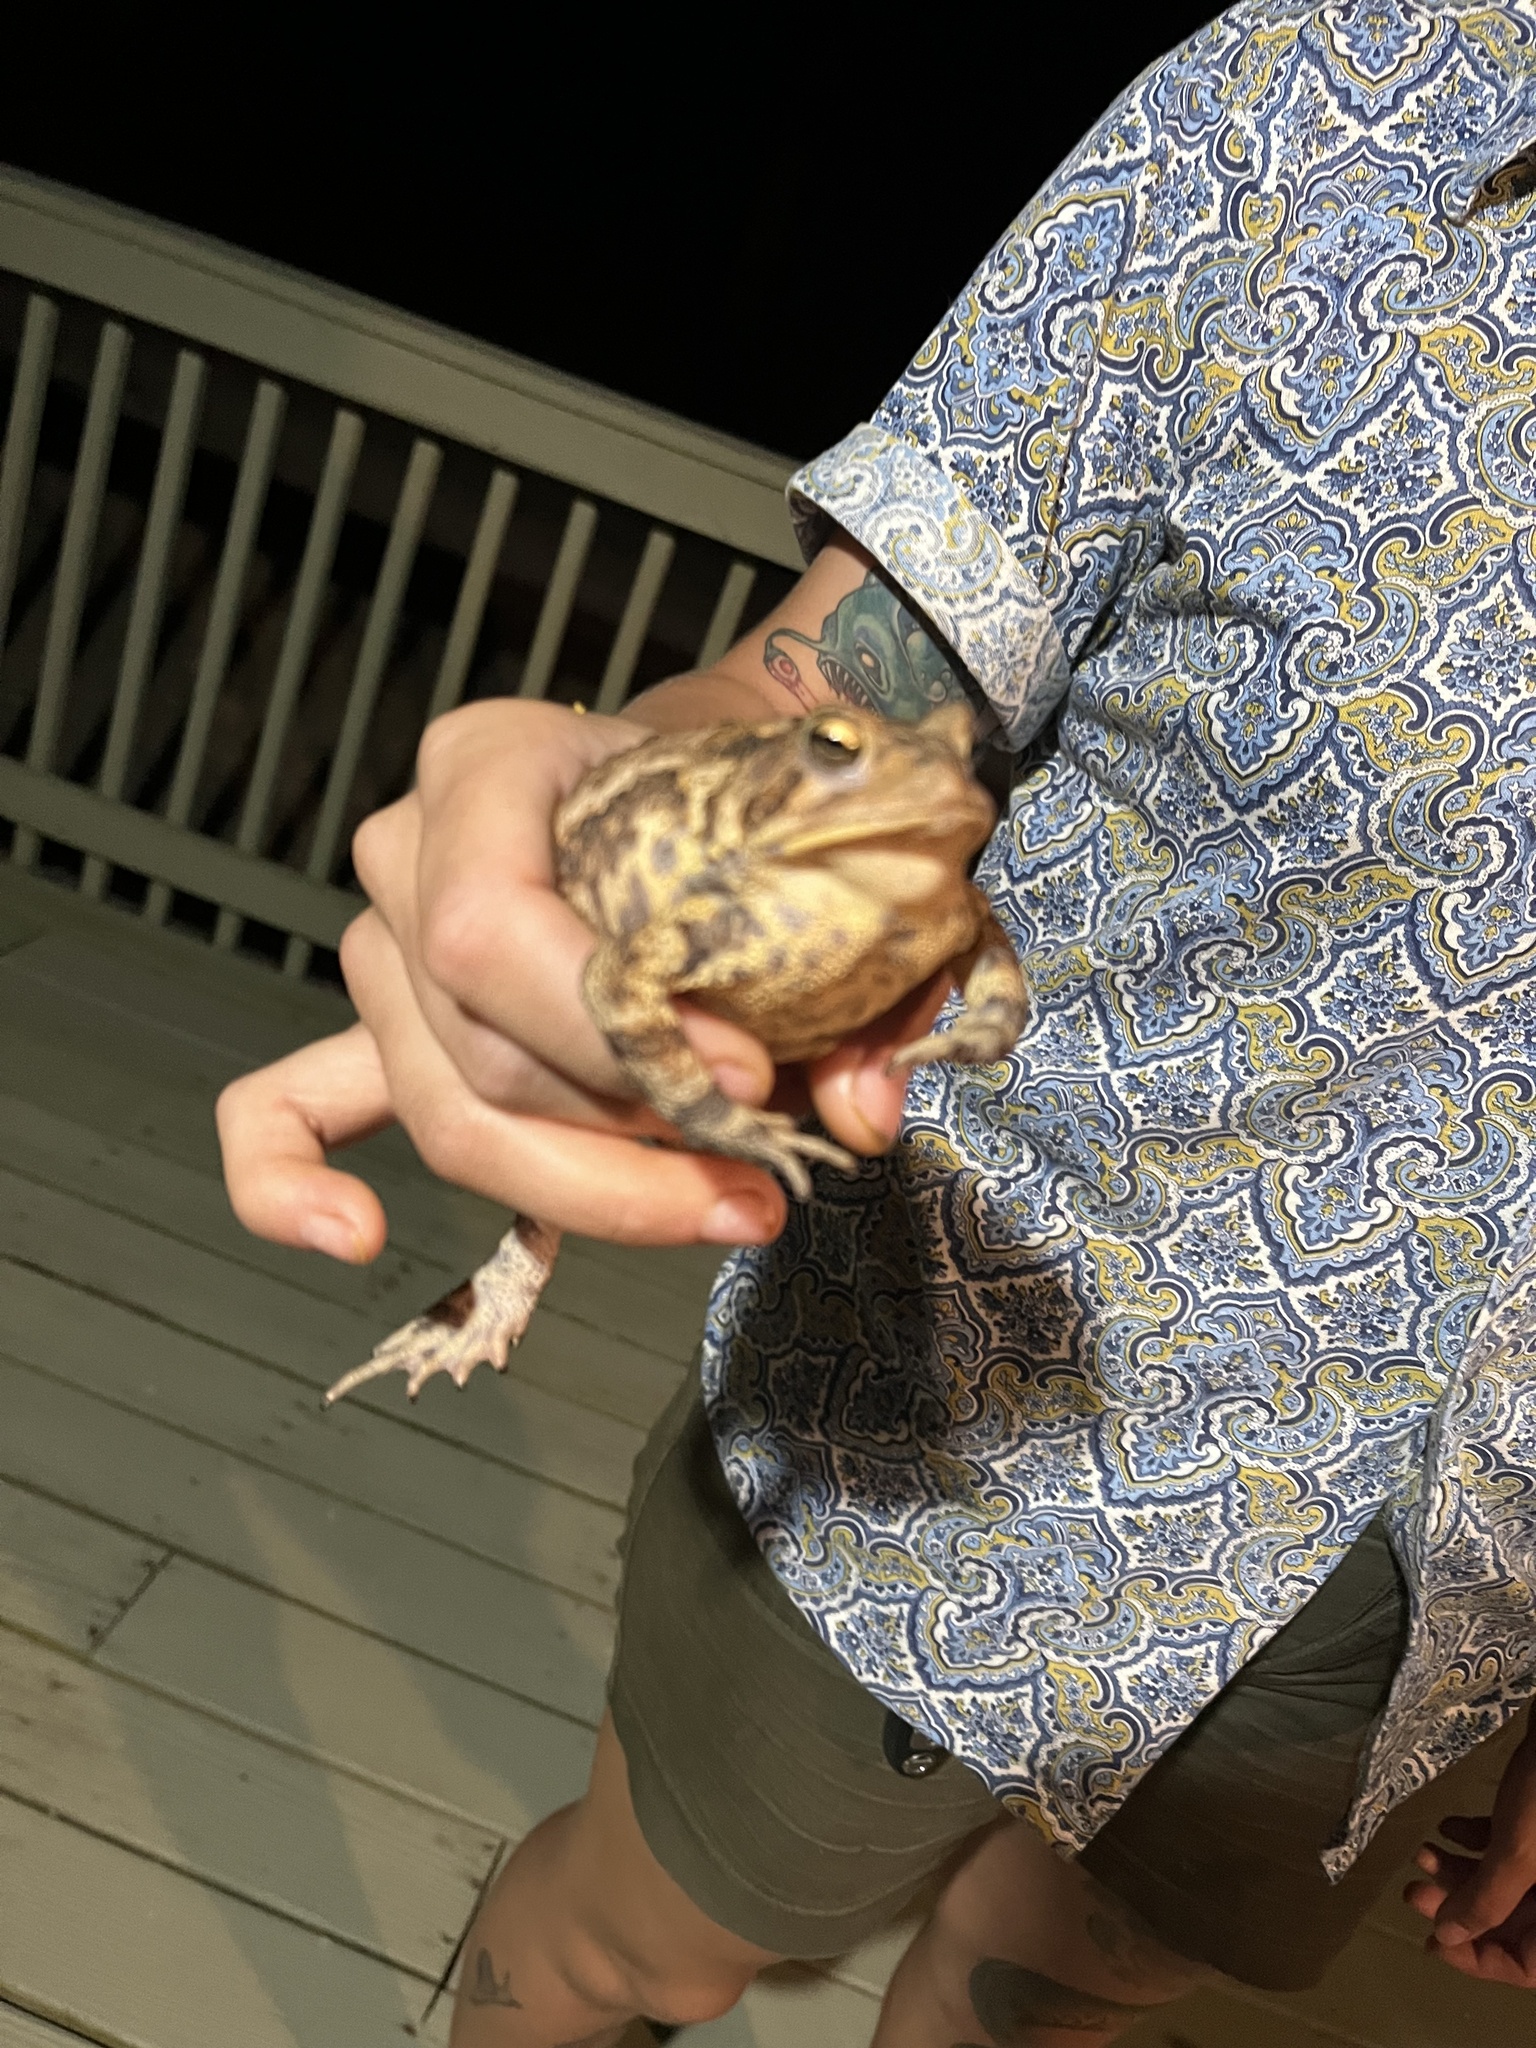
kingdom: Animalia
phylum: Chordata
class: Amphibia
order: Anura
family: Bufonidae
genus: Anaxyrus
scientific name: Anaxyrus americanus
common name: American toad
